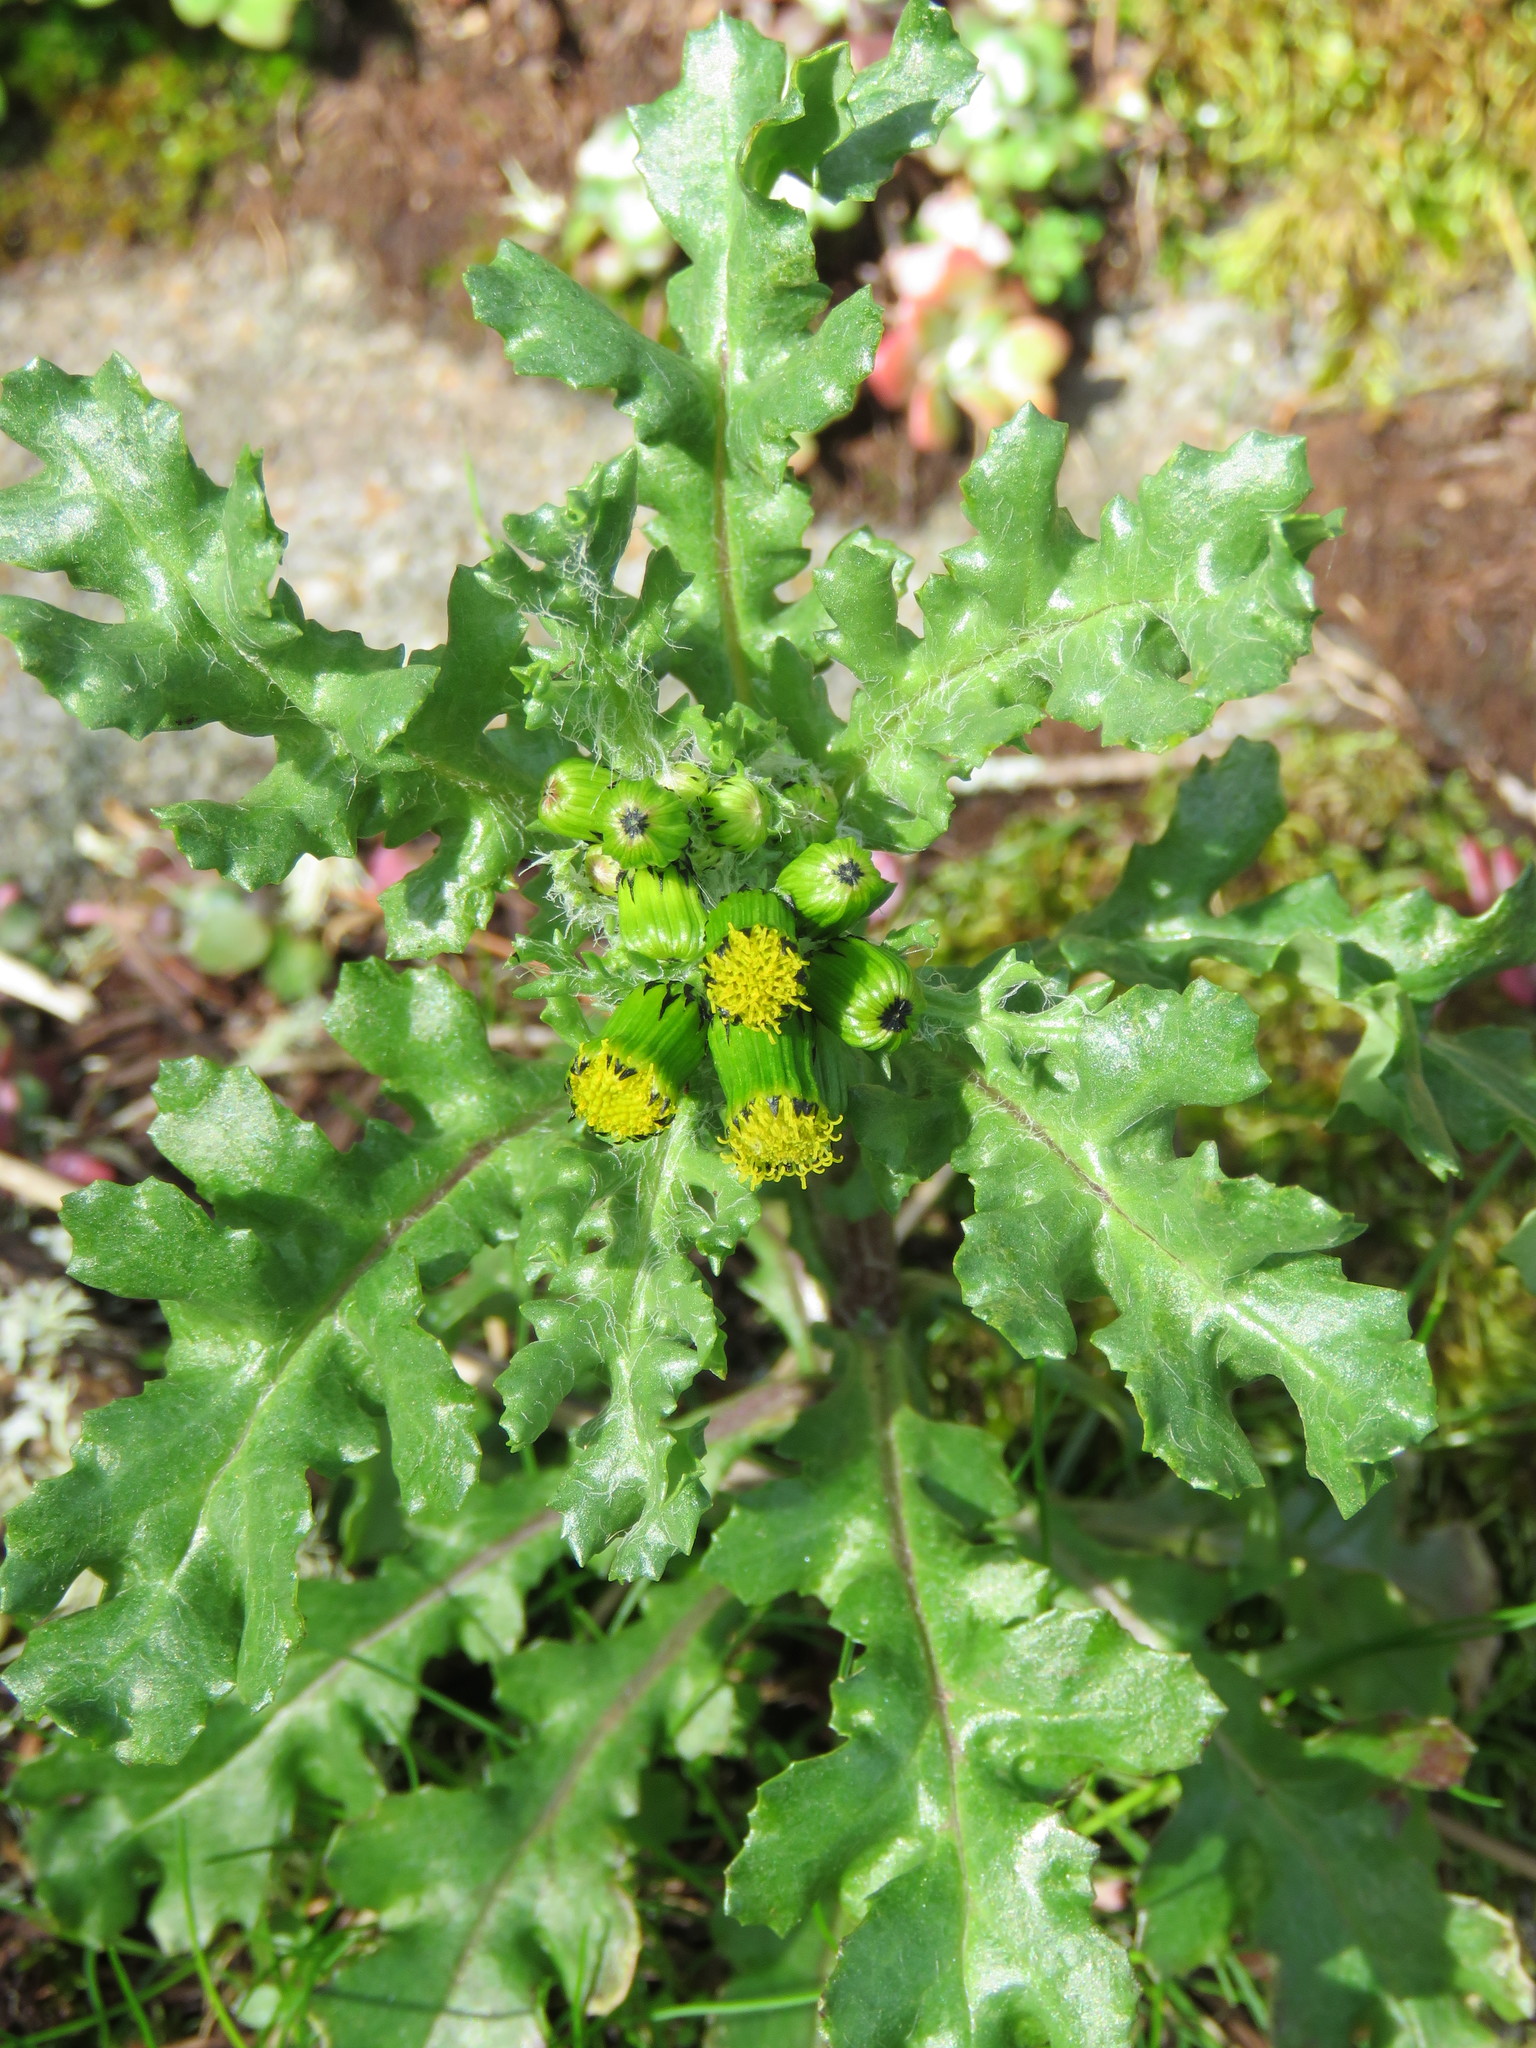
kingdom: Plantae
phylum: Tracheophyta
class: Magnoliopsida
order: Asterales
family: Asteraceae
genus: Senecio
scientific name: Senecio vulgaris
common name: Old-man-in-the-spring
